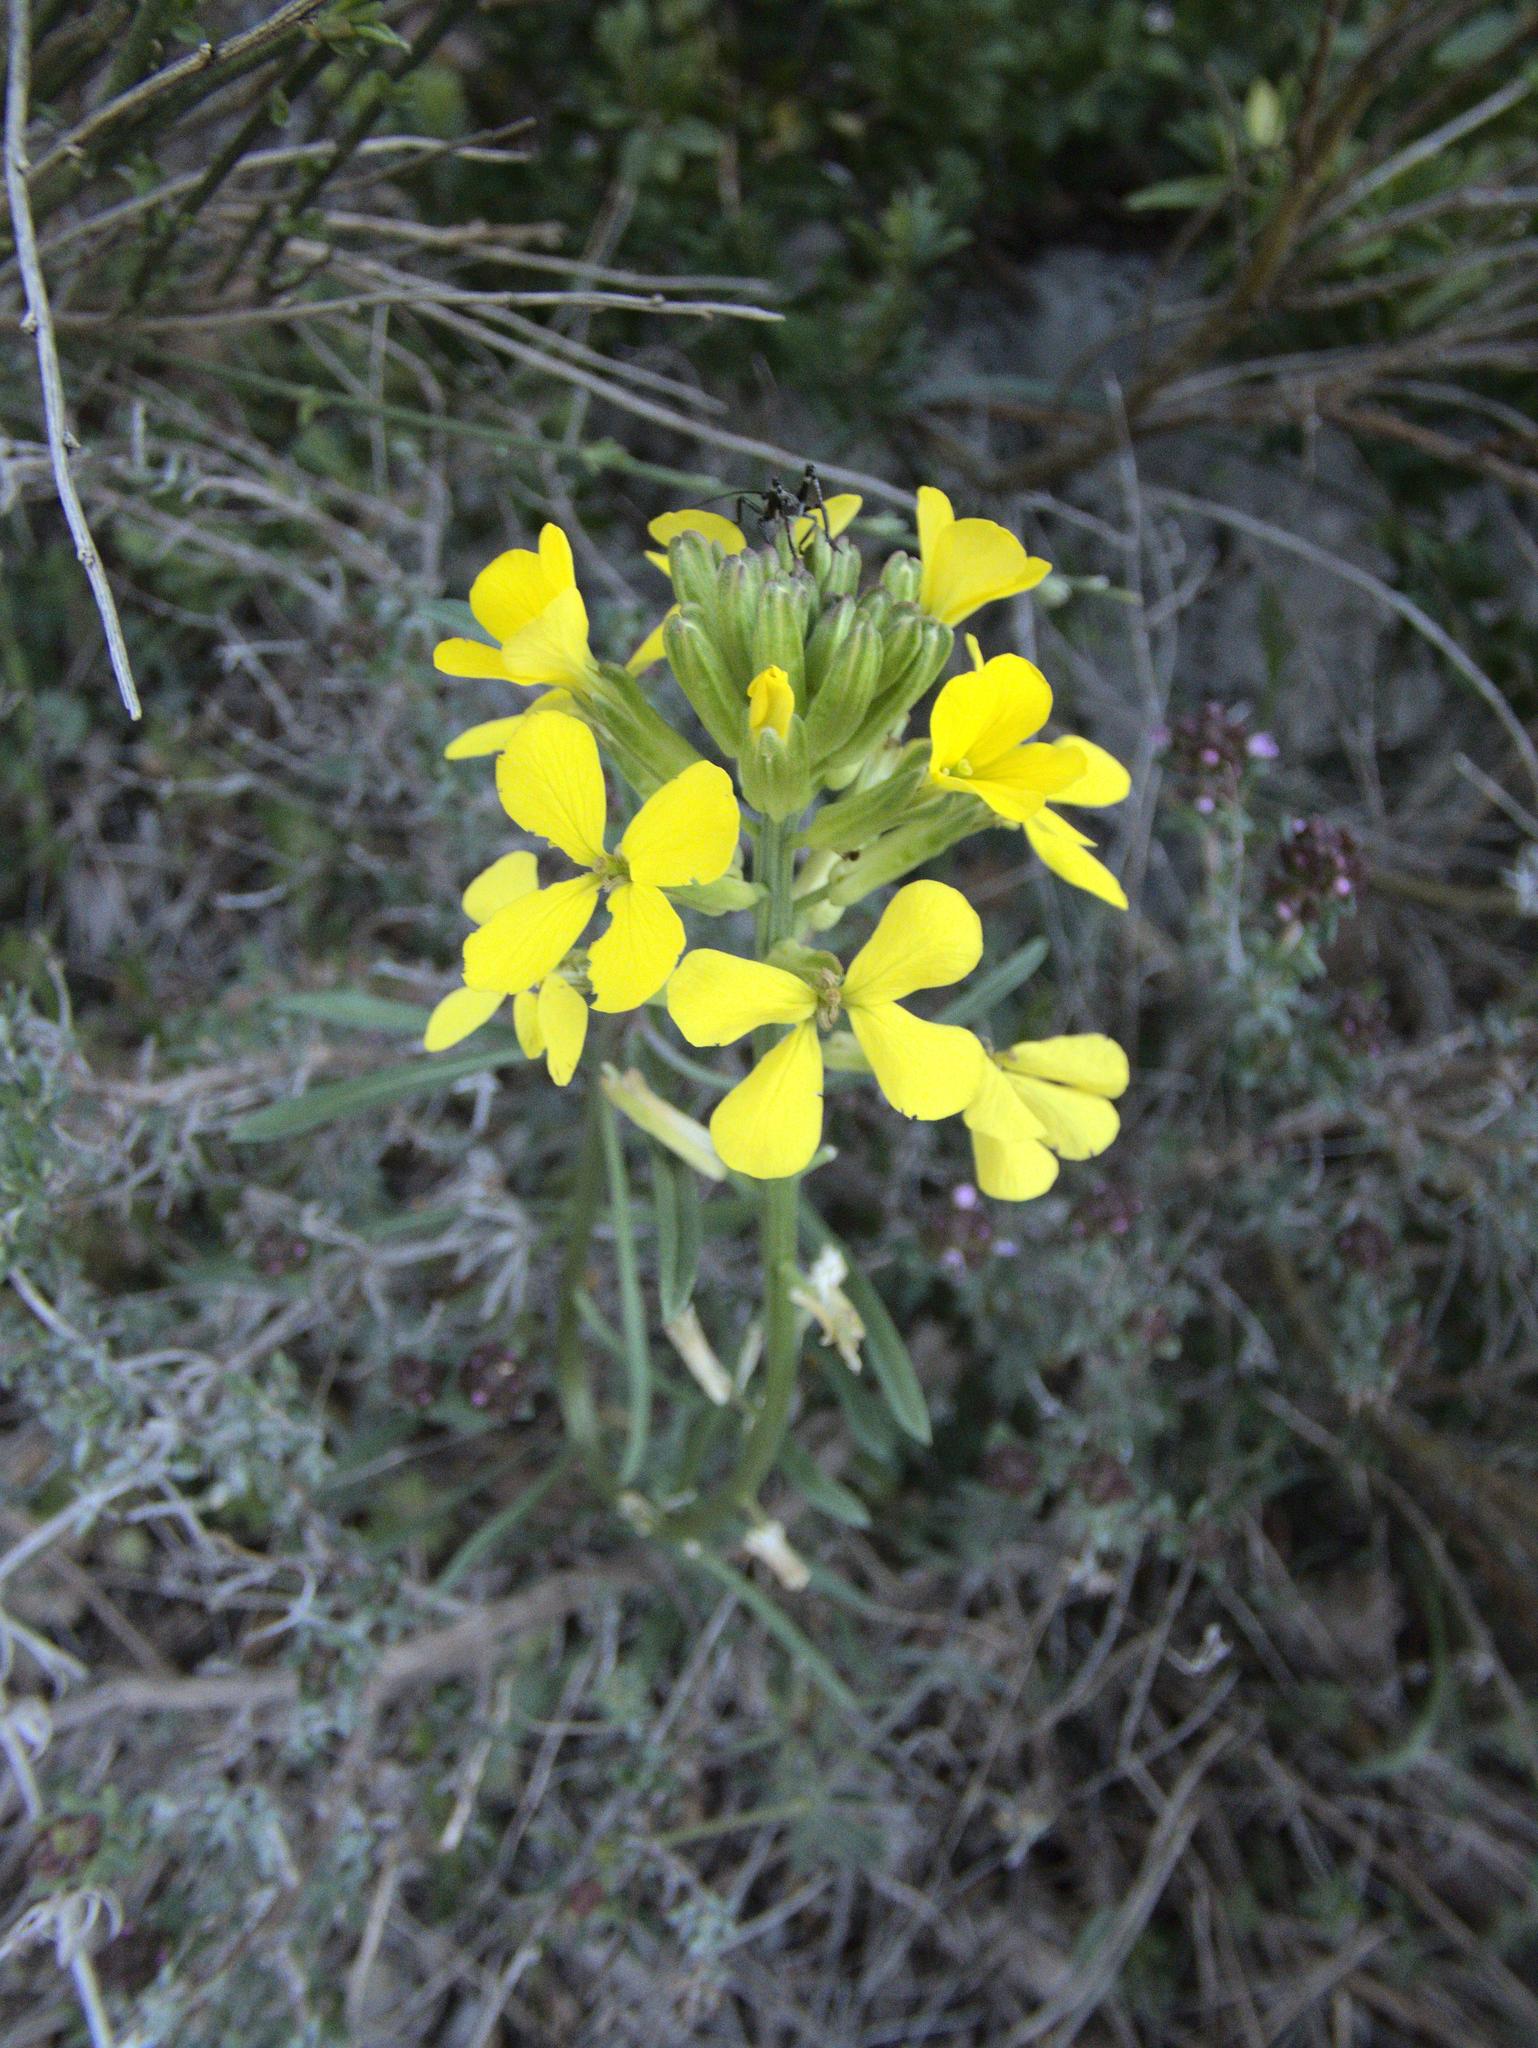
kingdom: Plantae
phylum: Tracheophyta
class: Magnoliopsida
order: Brassicales
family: Brassicaceae
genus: Erysimum
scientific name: Erysimum rhaeticum
